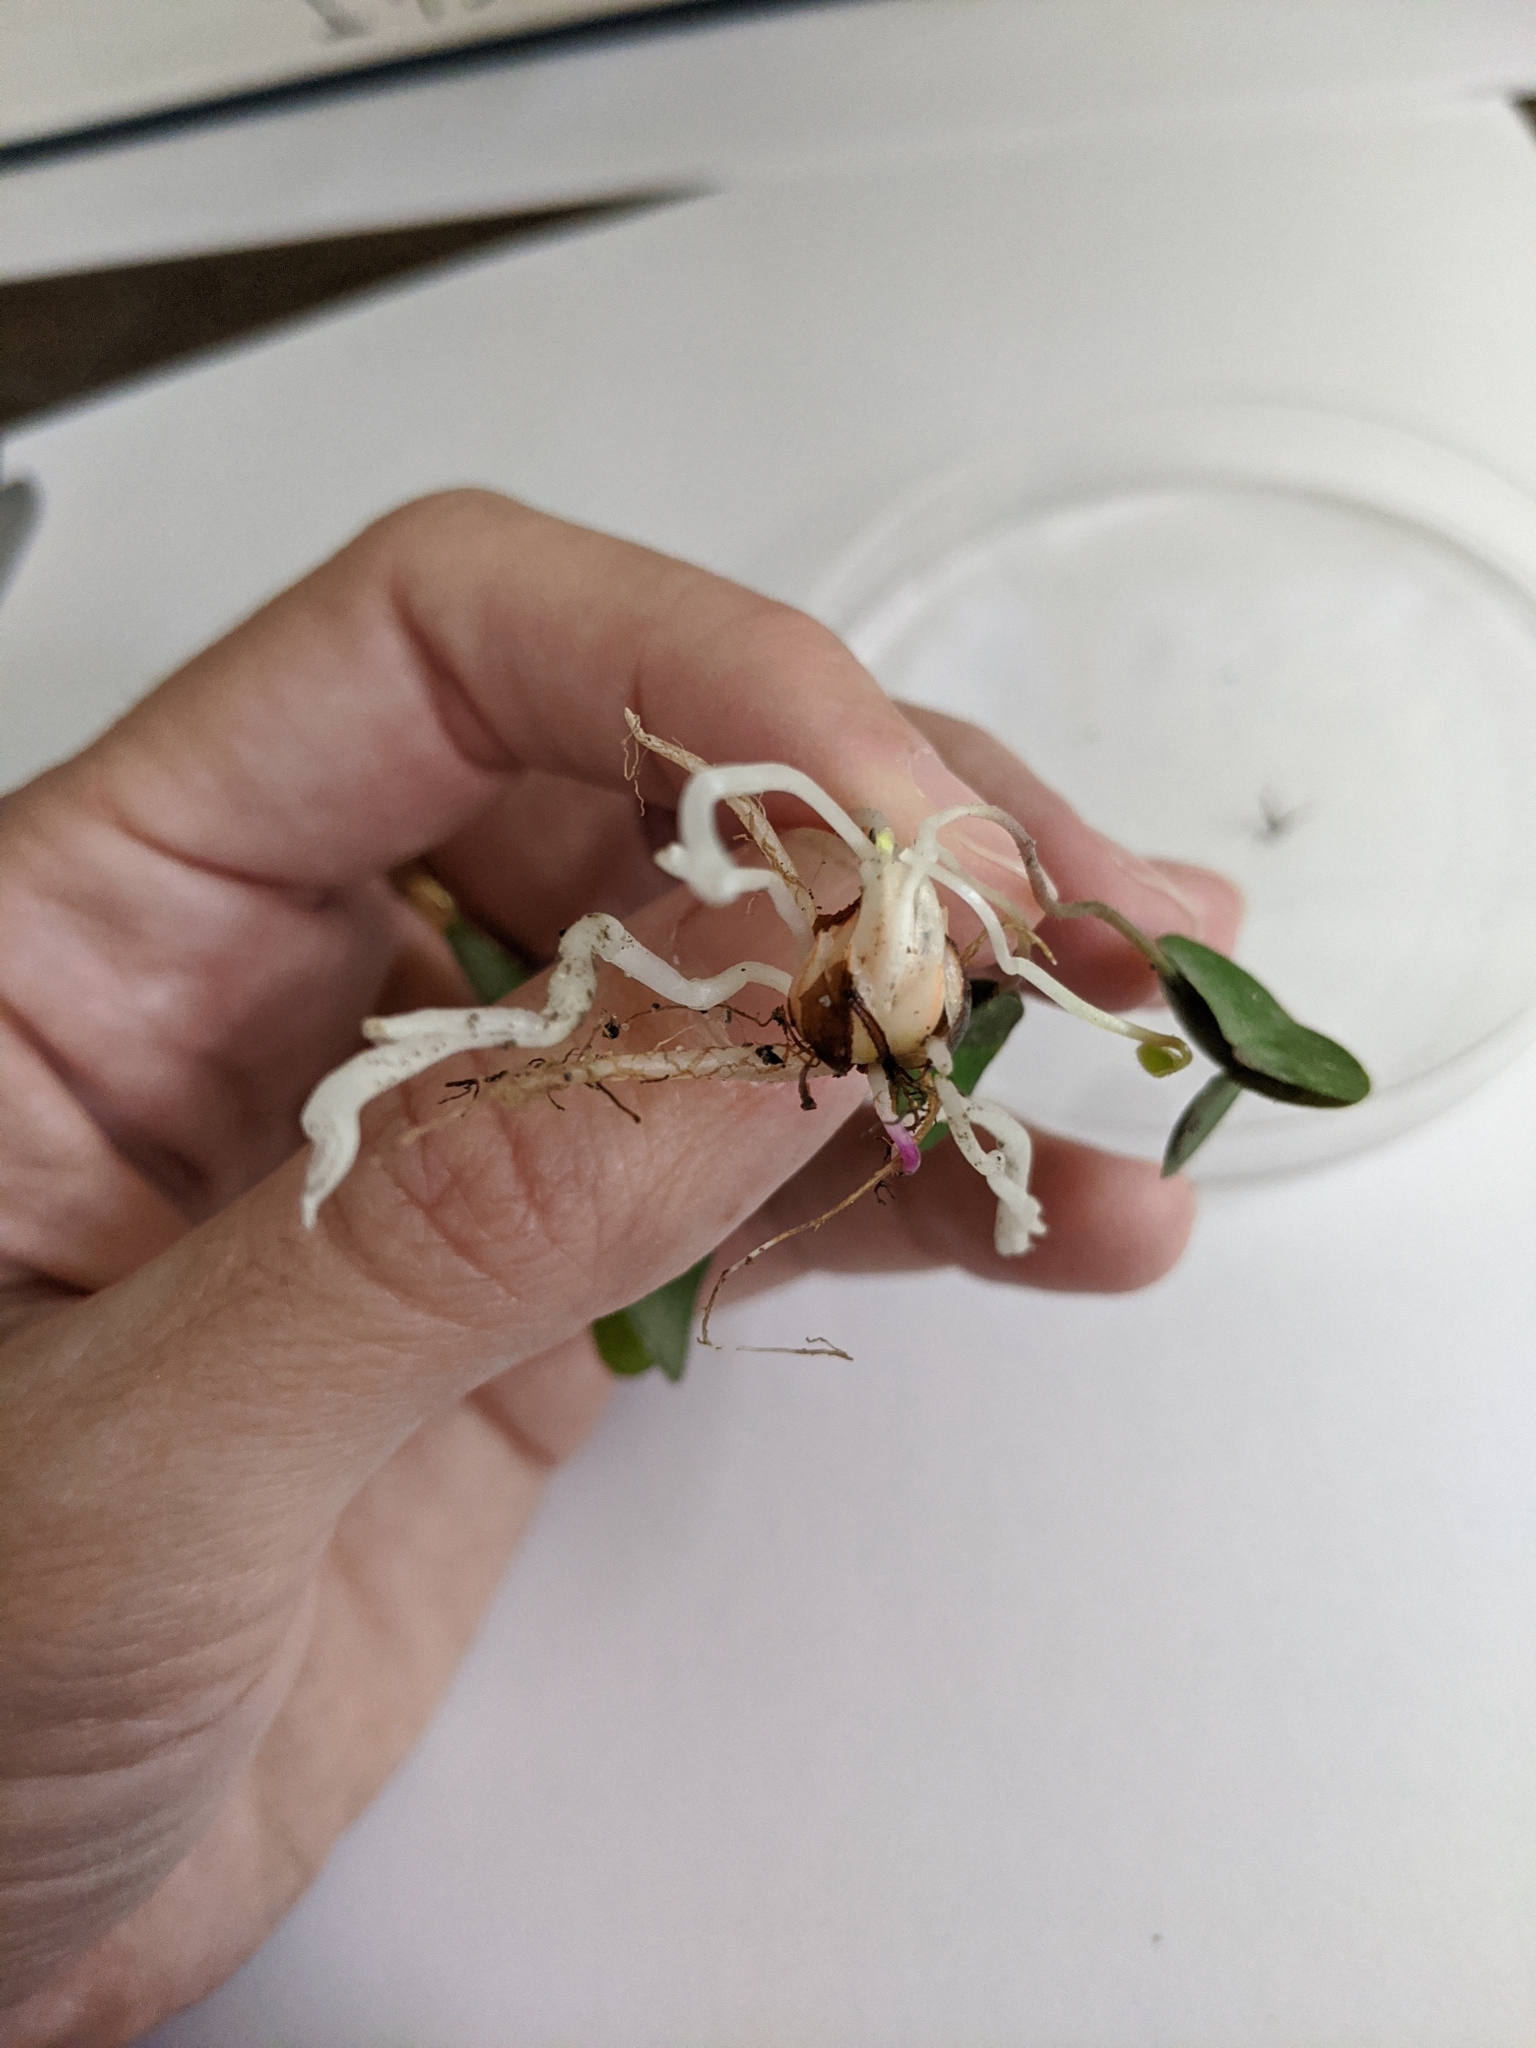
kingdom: Plantae
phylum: Tracheophyta
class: Magnoliopsida
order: Oxalidales
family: Oxalidaceae
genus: Oxalis
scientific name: Oxalis intermedia
